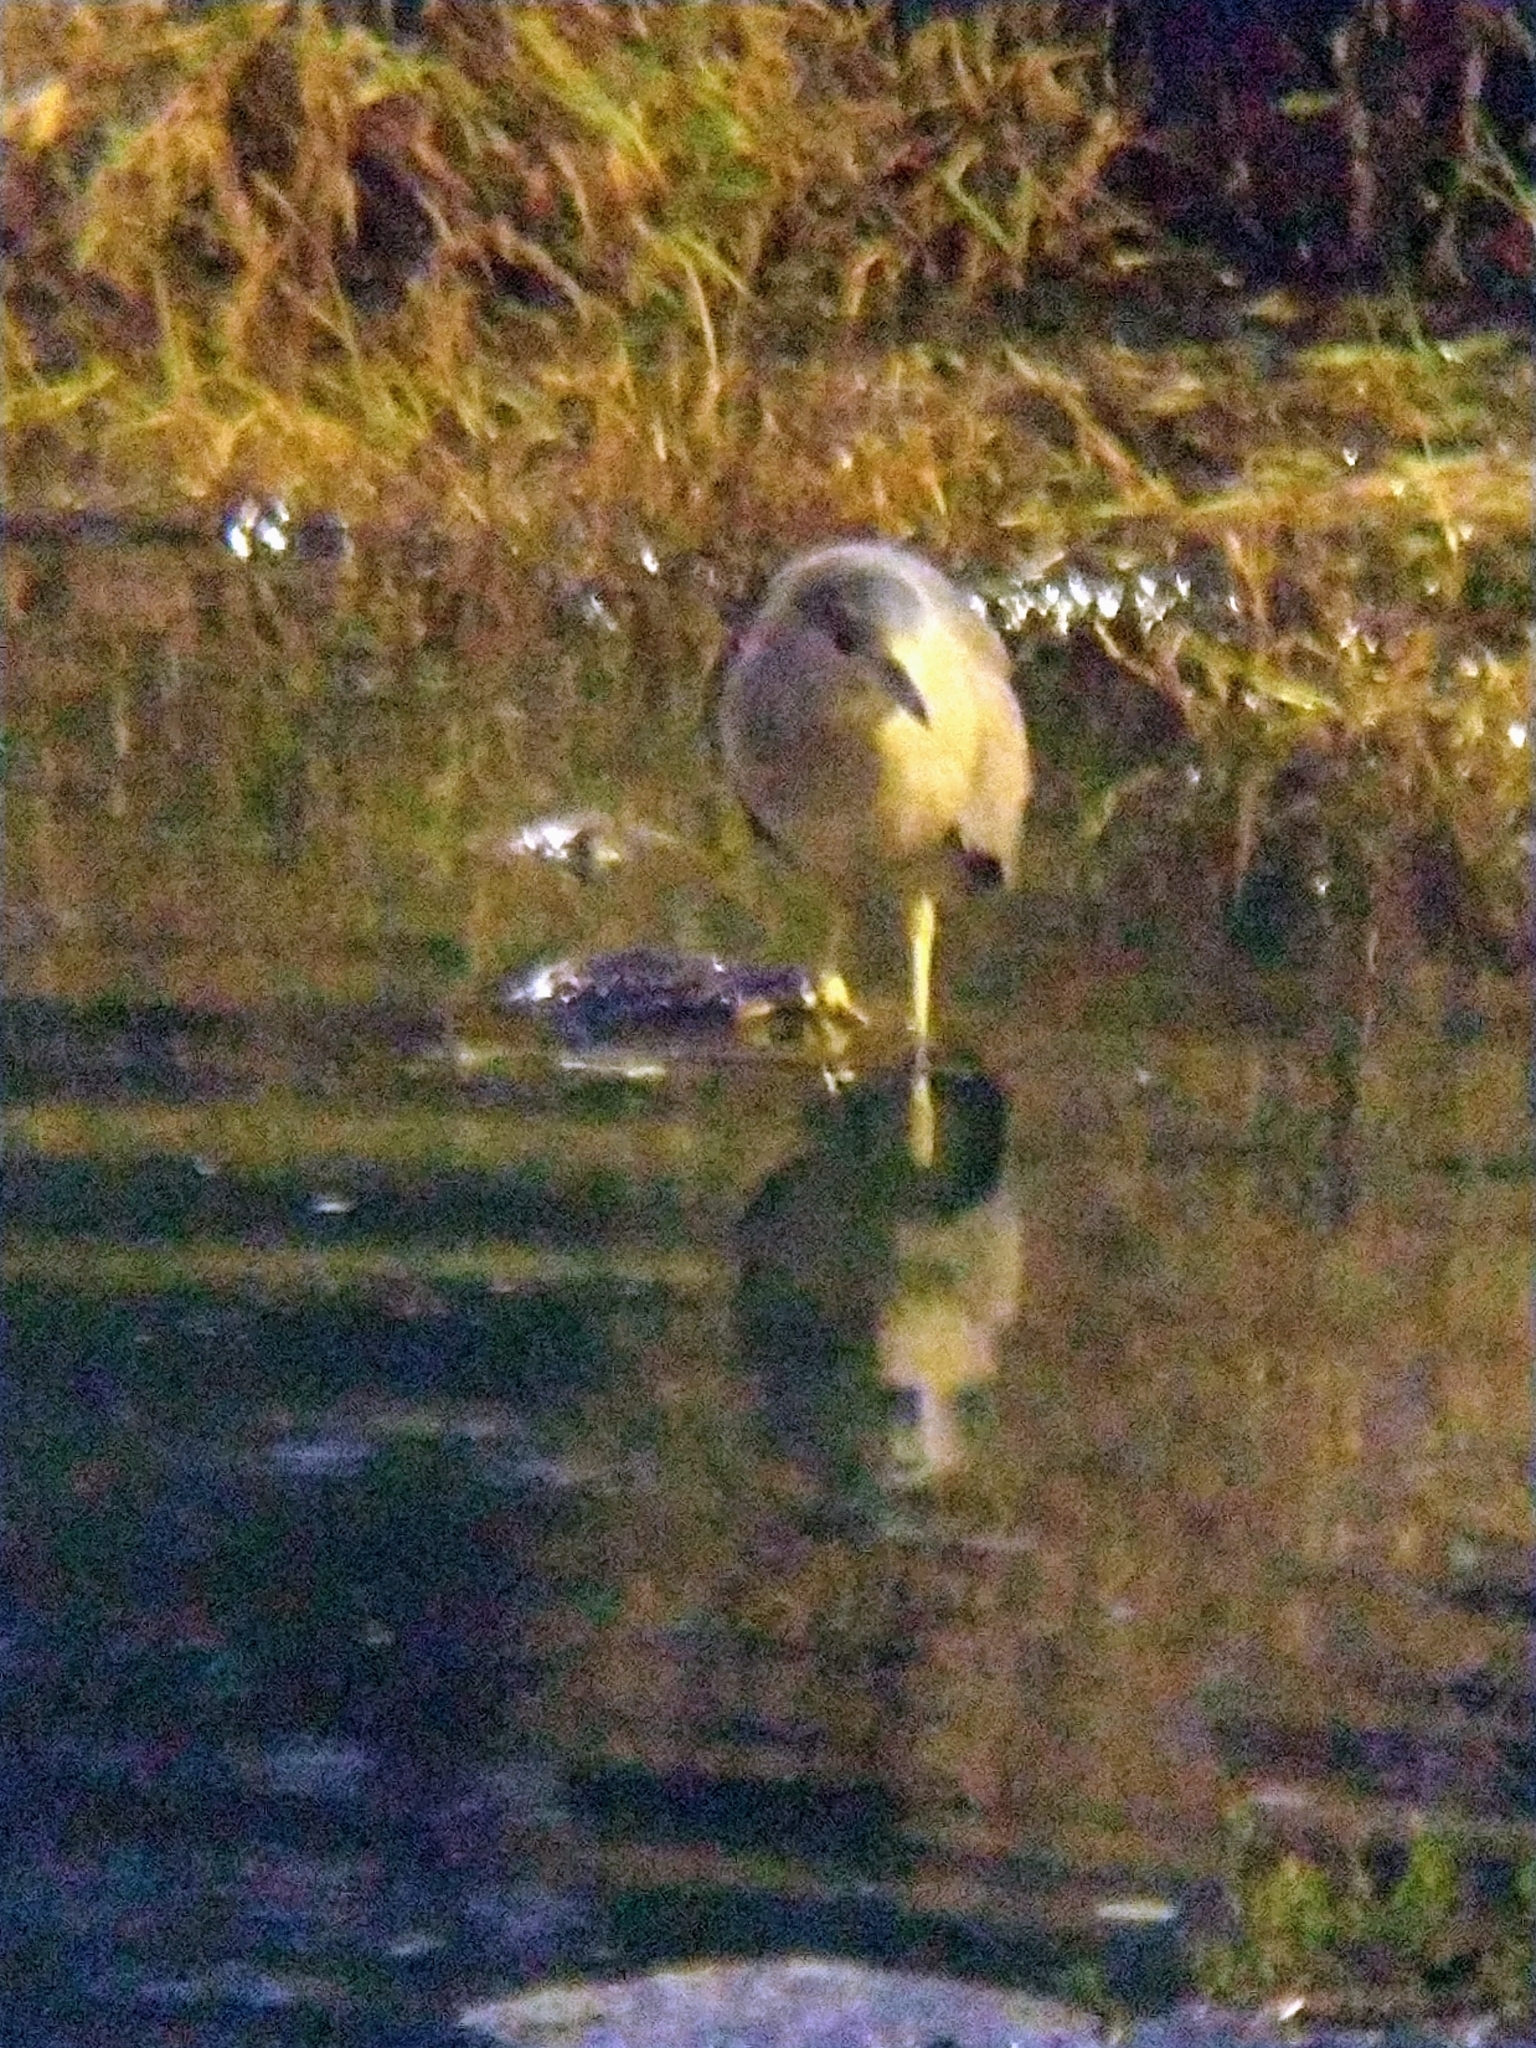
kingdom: Animalia
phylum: Chordata
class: Aves
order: Pelecaniformes
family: Ardeidae
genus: Nycticorax
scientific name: Nycticorax nycticorax
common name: Black-crowned night heron
